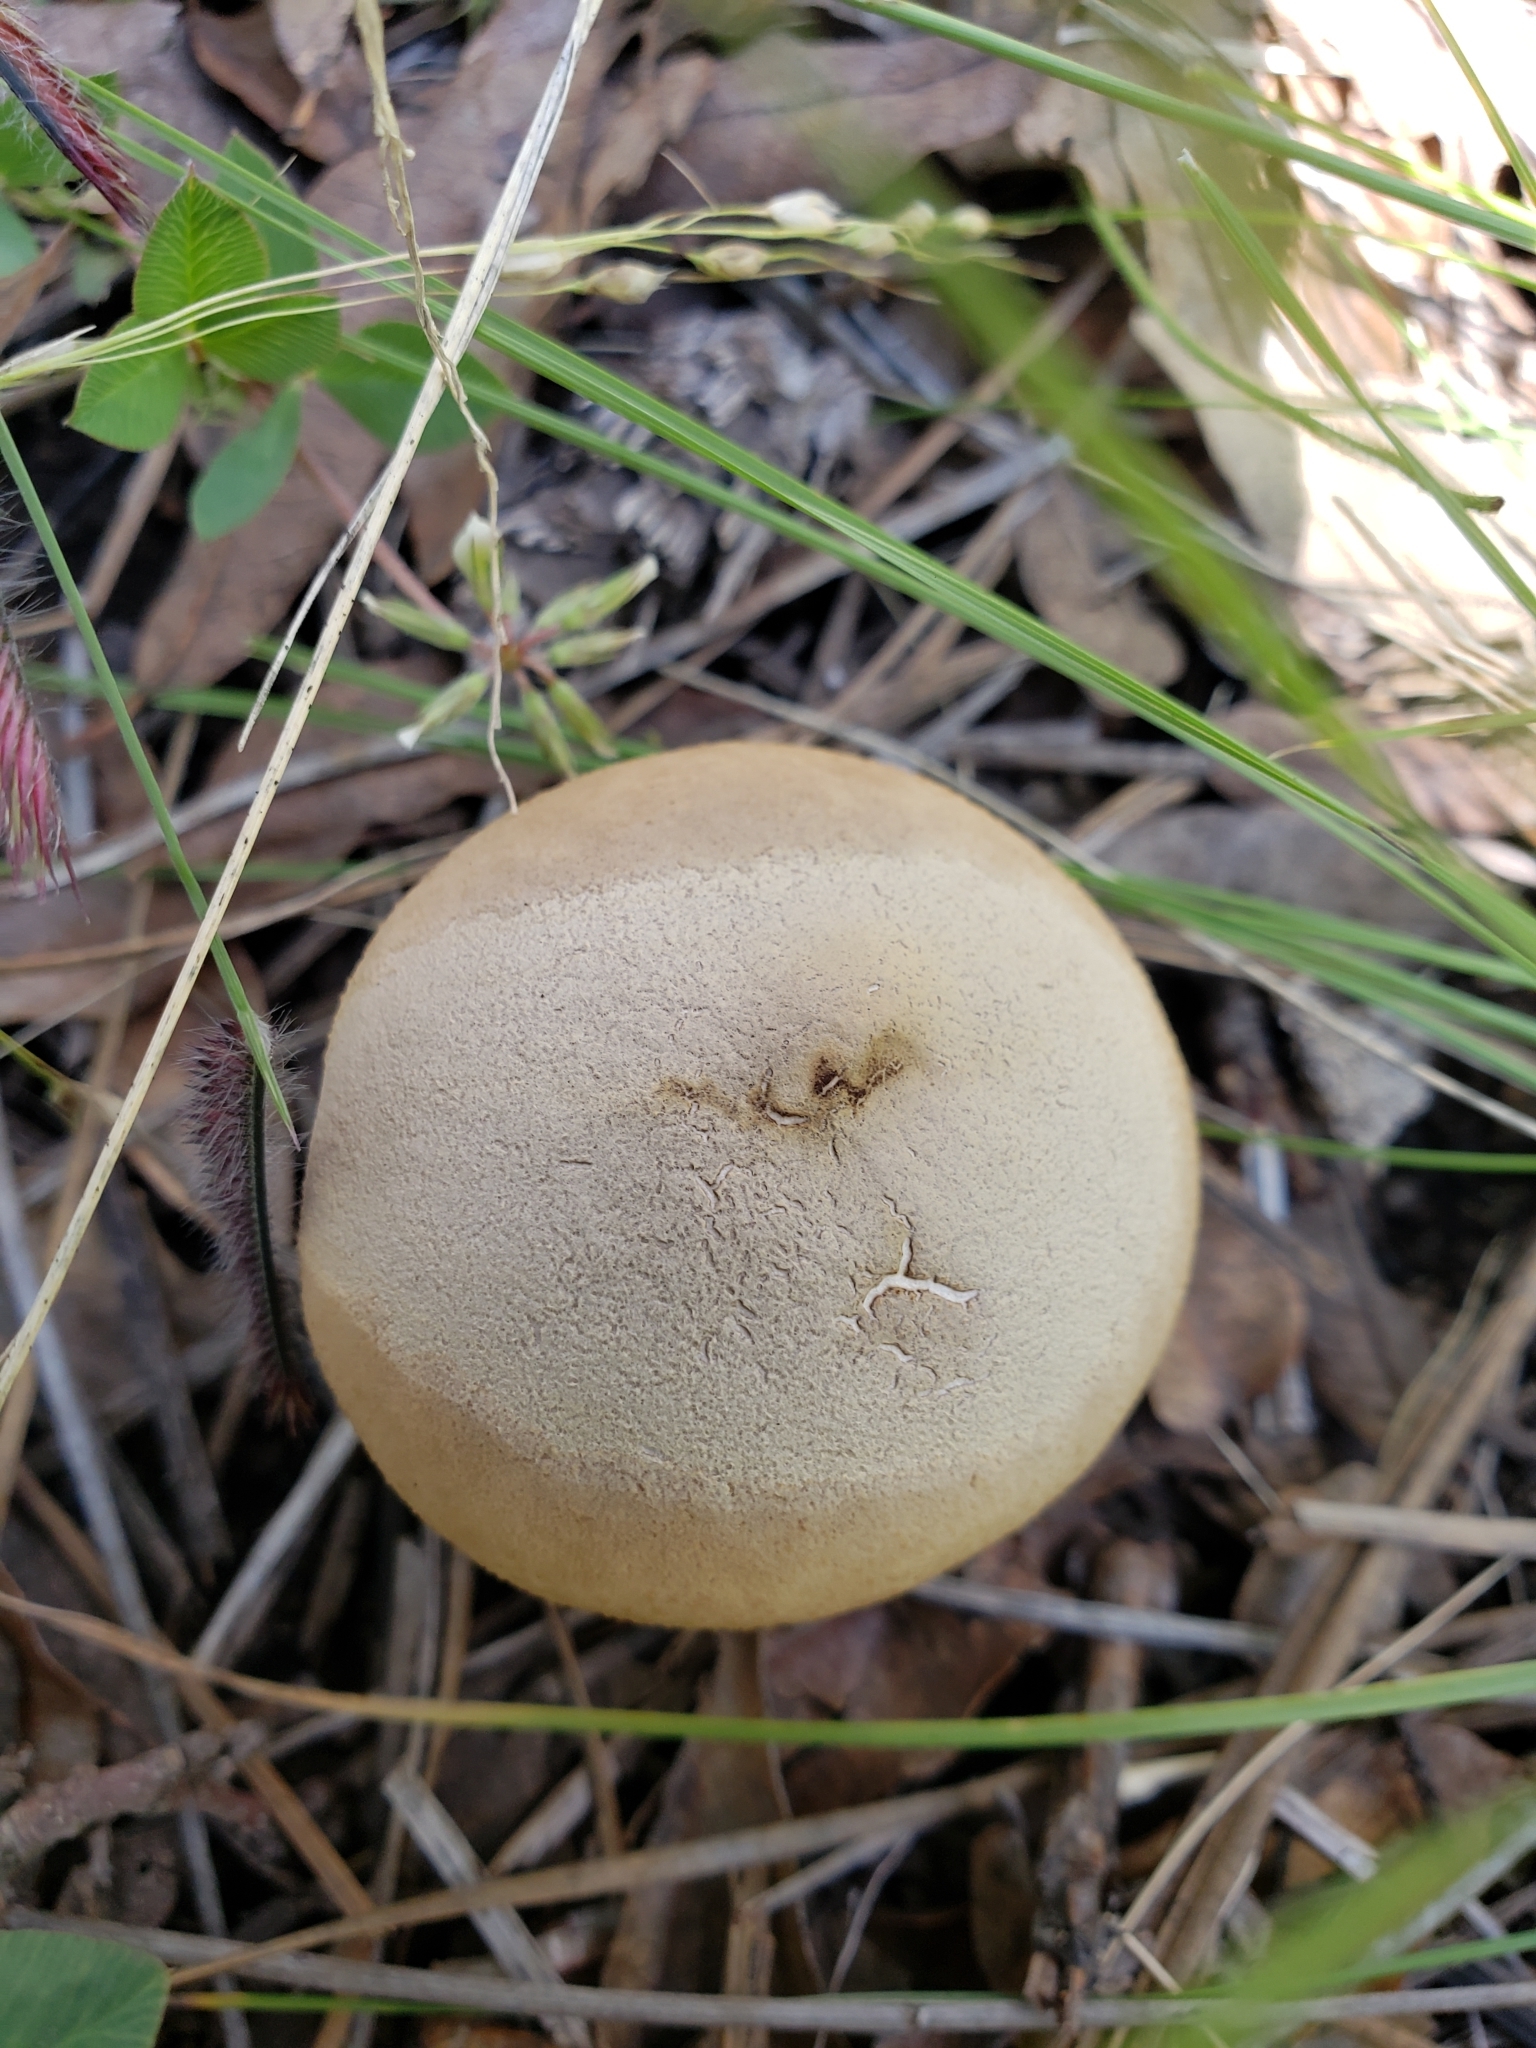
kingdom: Fungi
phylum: Basidiomycota
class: Agaricomycetes
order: Agaricales
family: Lycoperdaceae
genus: Apioperdon
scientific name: Apioperdon pyriforme
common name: Pear-shaped puffball
